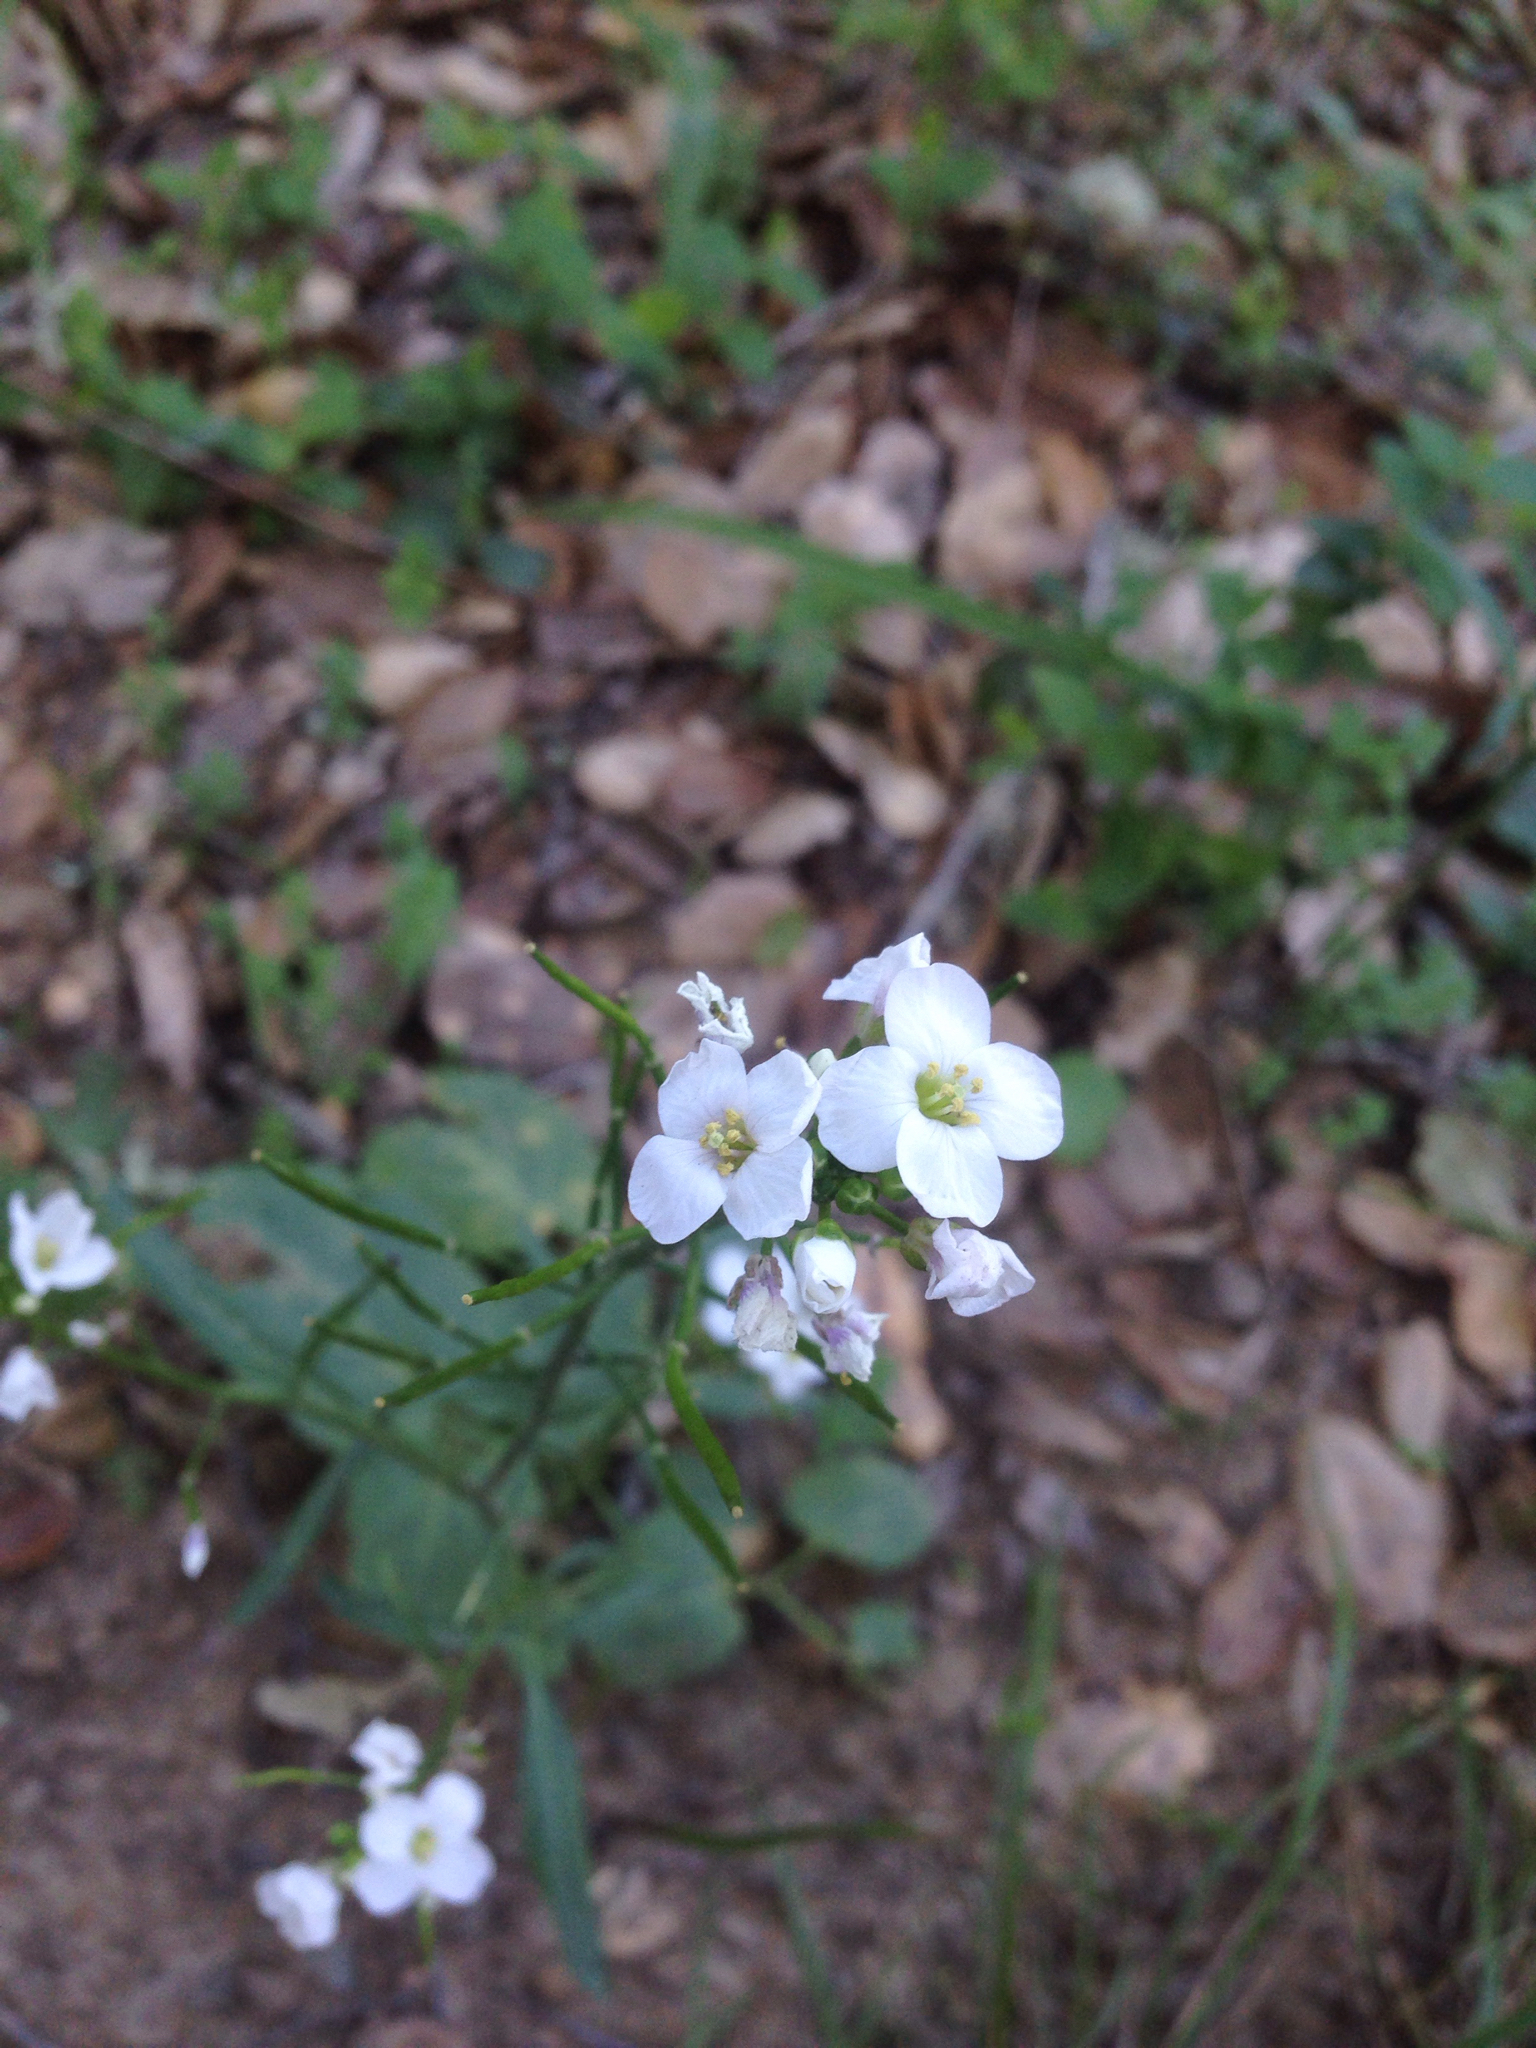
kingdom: Plantae
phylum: Tracheophyta
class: Magnoliopsida
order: Brassicales
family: Brassicaceae
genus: Cardamine
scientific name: Cardamine californica
